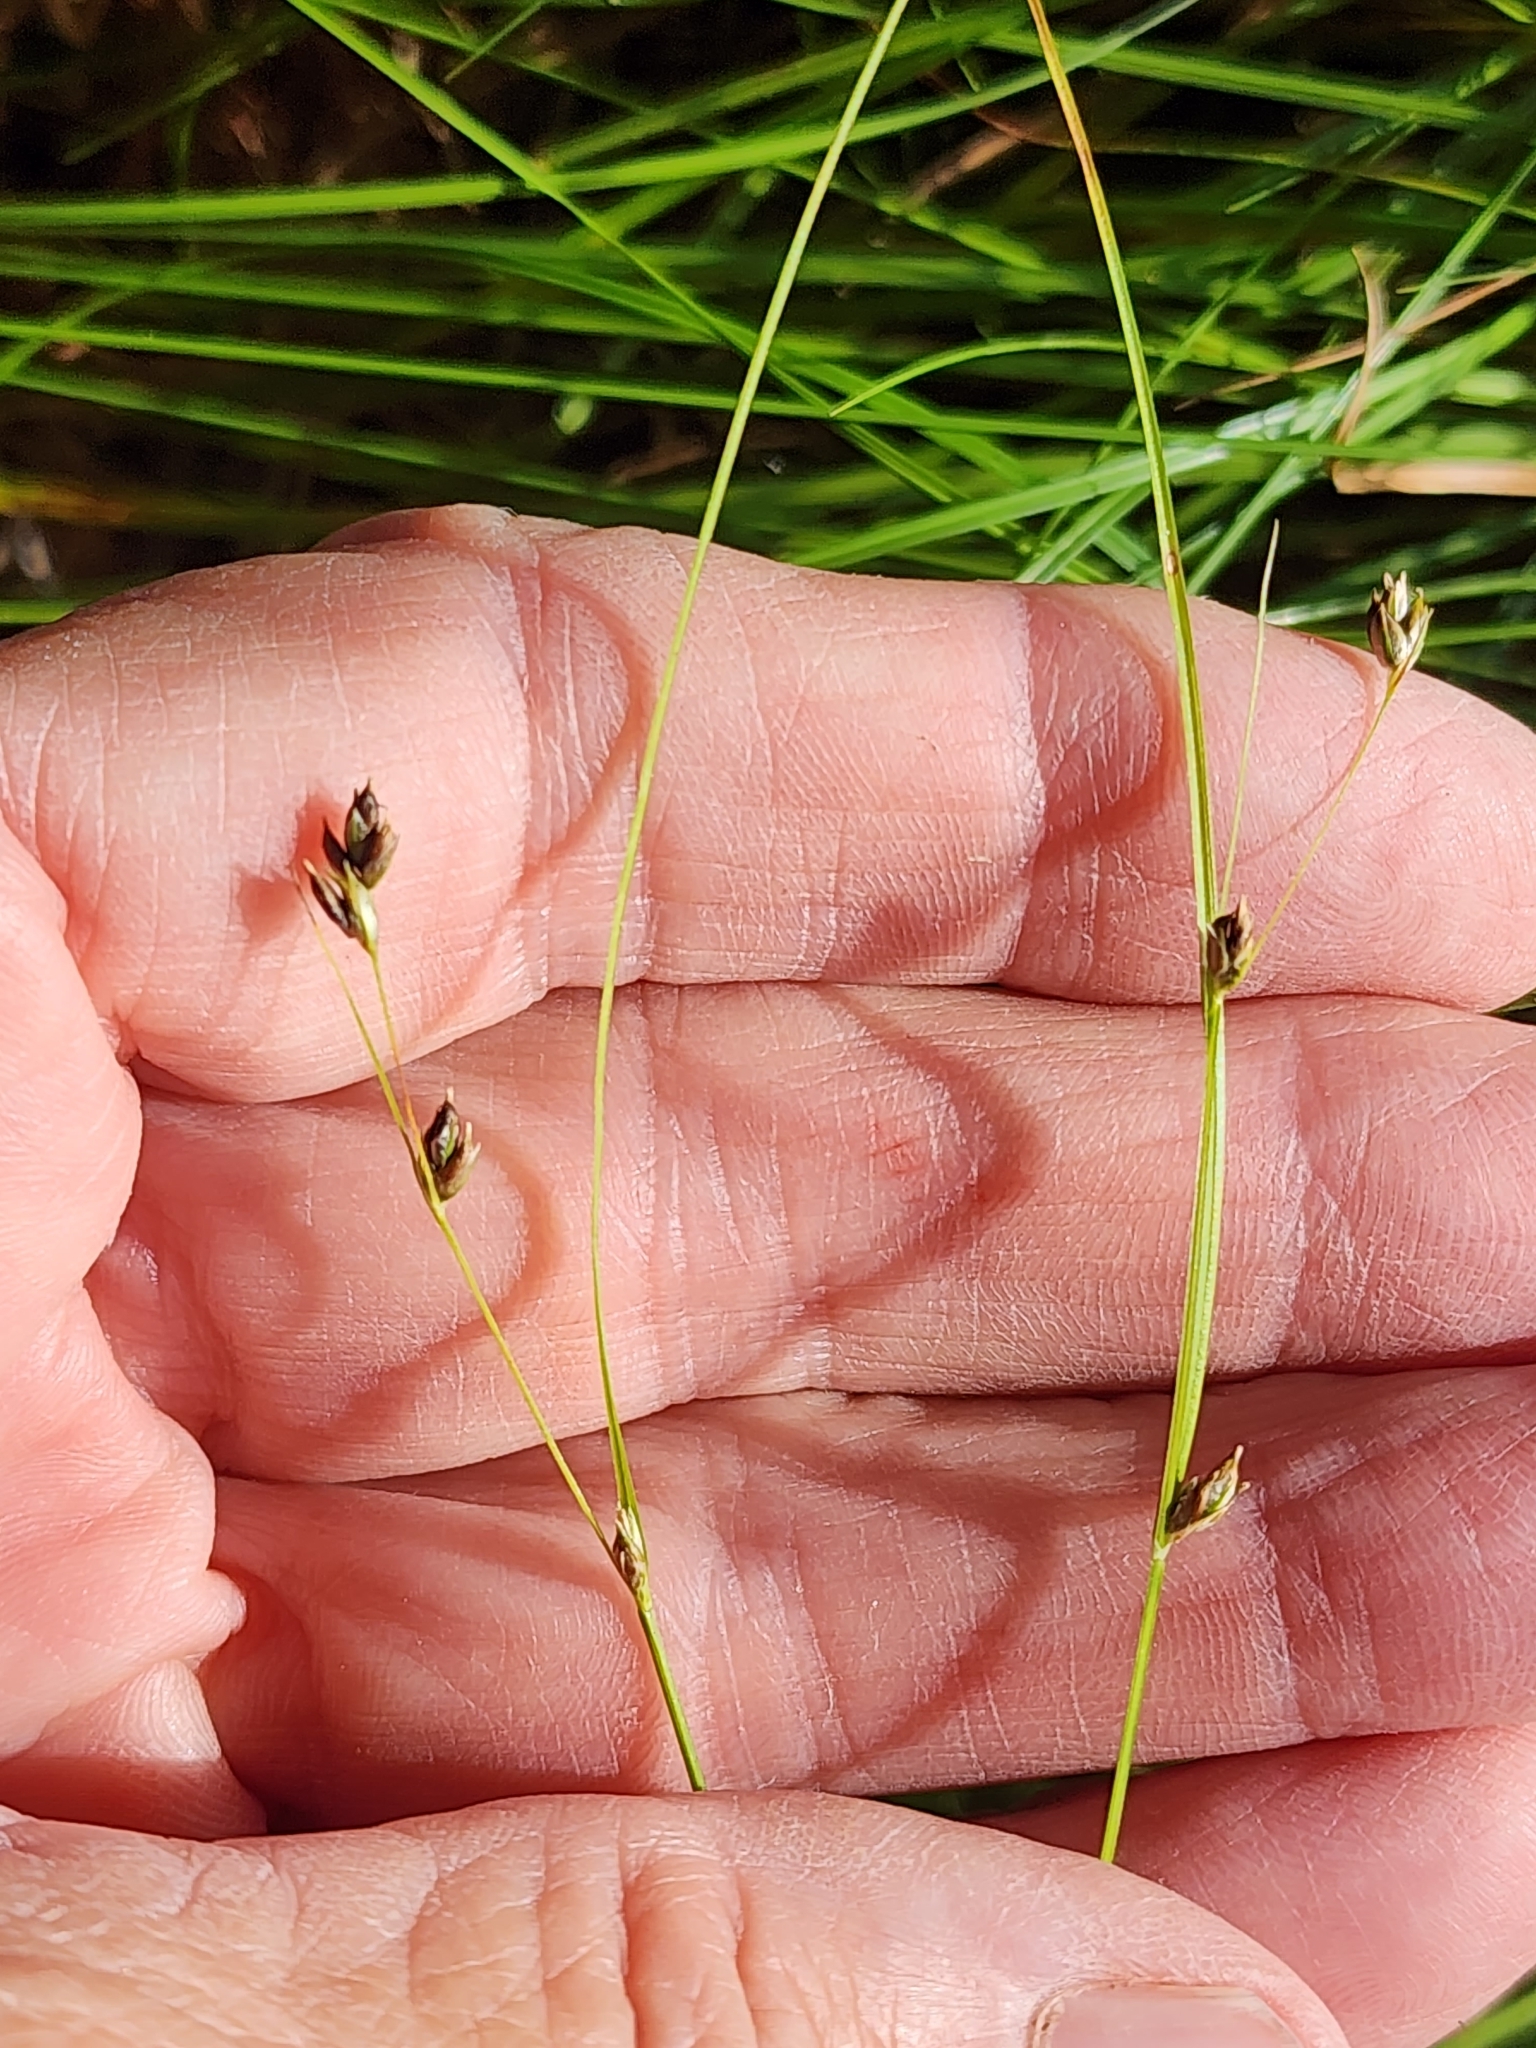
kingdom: Plantae
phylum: Tracheophyta
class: Liliopsida
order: Poales
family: Cyperaceae
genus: Carex
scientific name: Carex trisperma
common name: Three-seeded sedge
